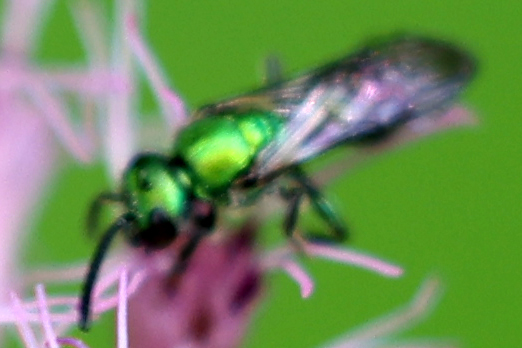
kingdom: Animalia
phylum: Arthropoda
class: Insecta
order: Hymenoptera
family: Halictidae
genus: Augochlora
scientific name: Augochlora pura
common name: Pure green sweat bee
